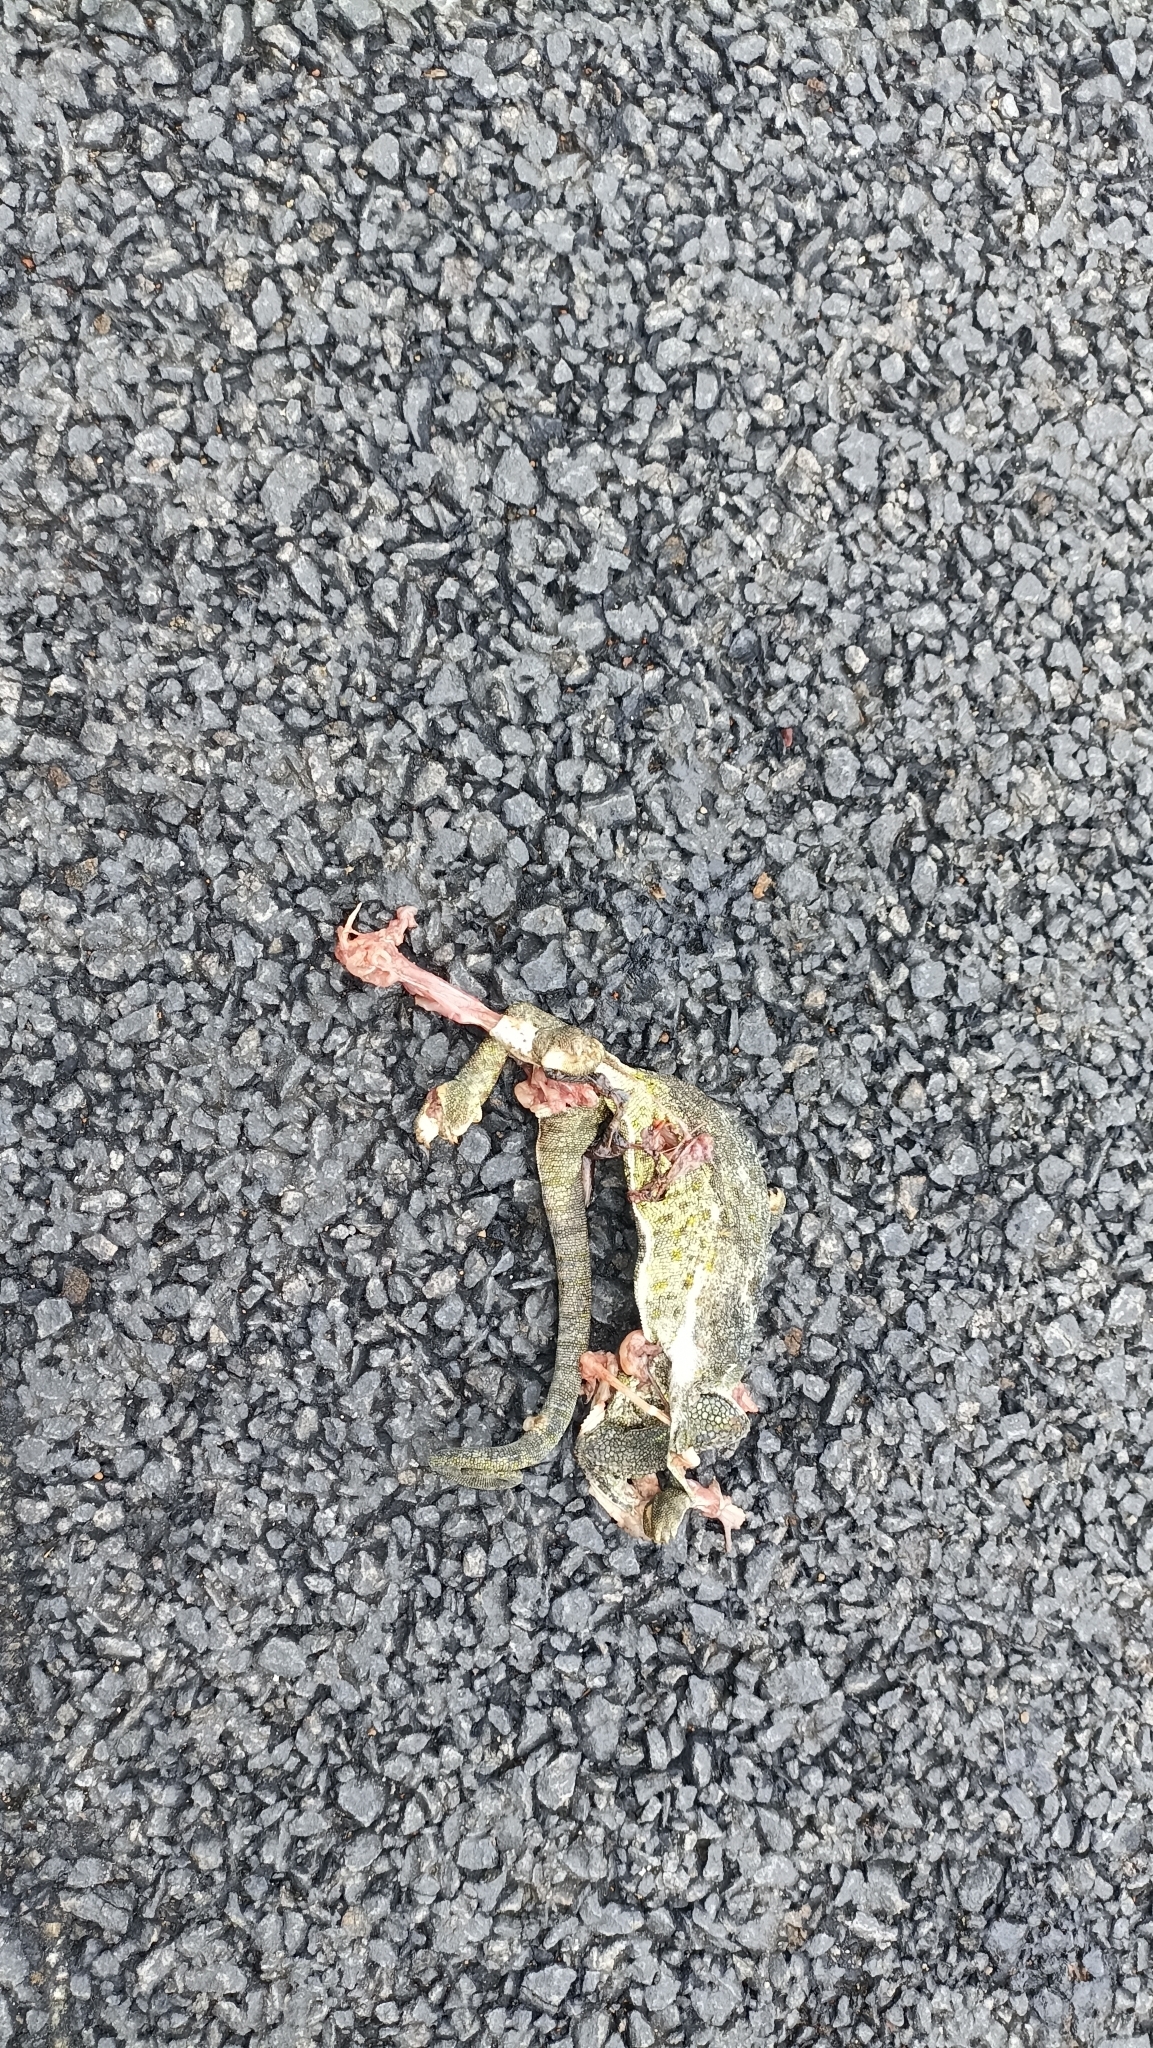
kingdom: Animalia
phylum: Chordata
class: Squamata
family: Chamaeleonidae
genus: Chamaeleo
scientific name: Chamaeleo zeylanicus
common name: Indian chameleon
